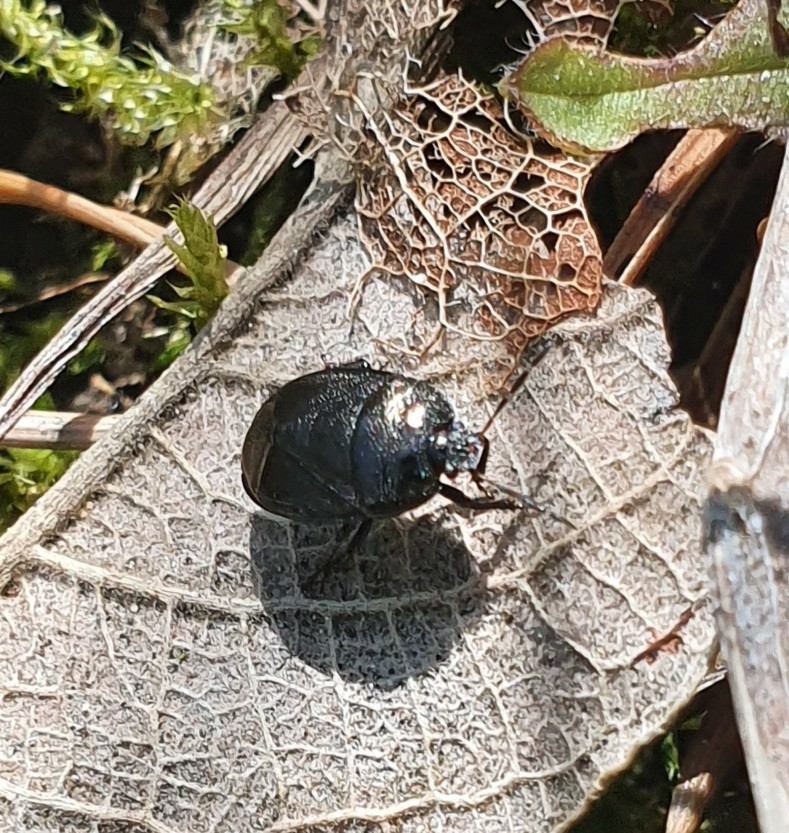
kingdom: Animalia
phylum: Arthropoda
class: Insecta
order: Hemiptera
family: Cydnidae
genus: Sehirus
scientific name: Sehirus luctuosus
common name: Forget-me-not shieldbug
